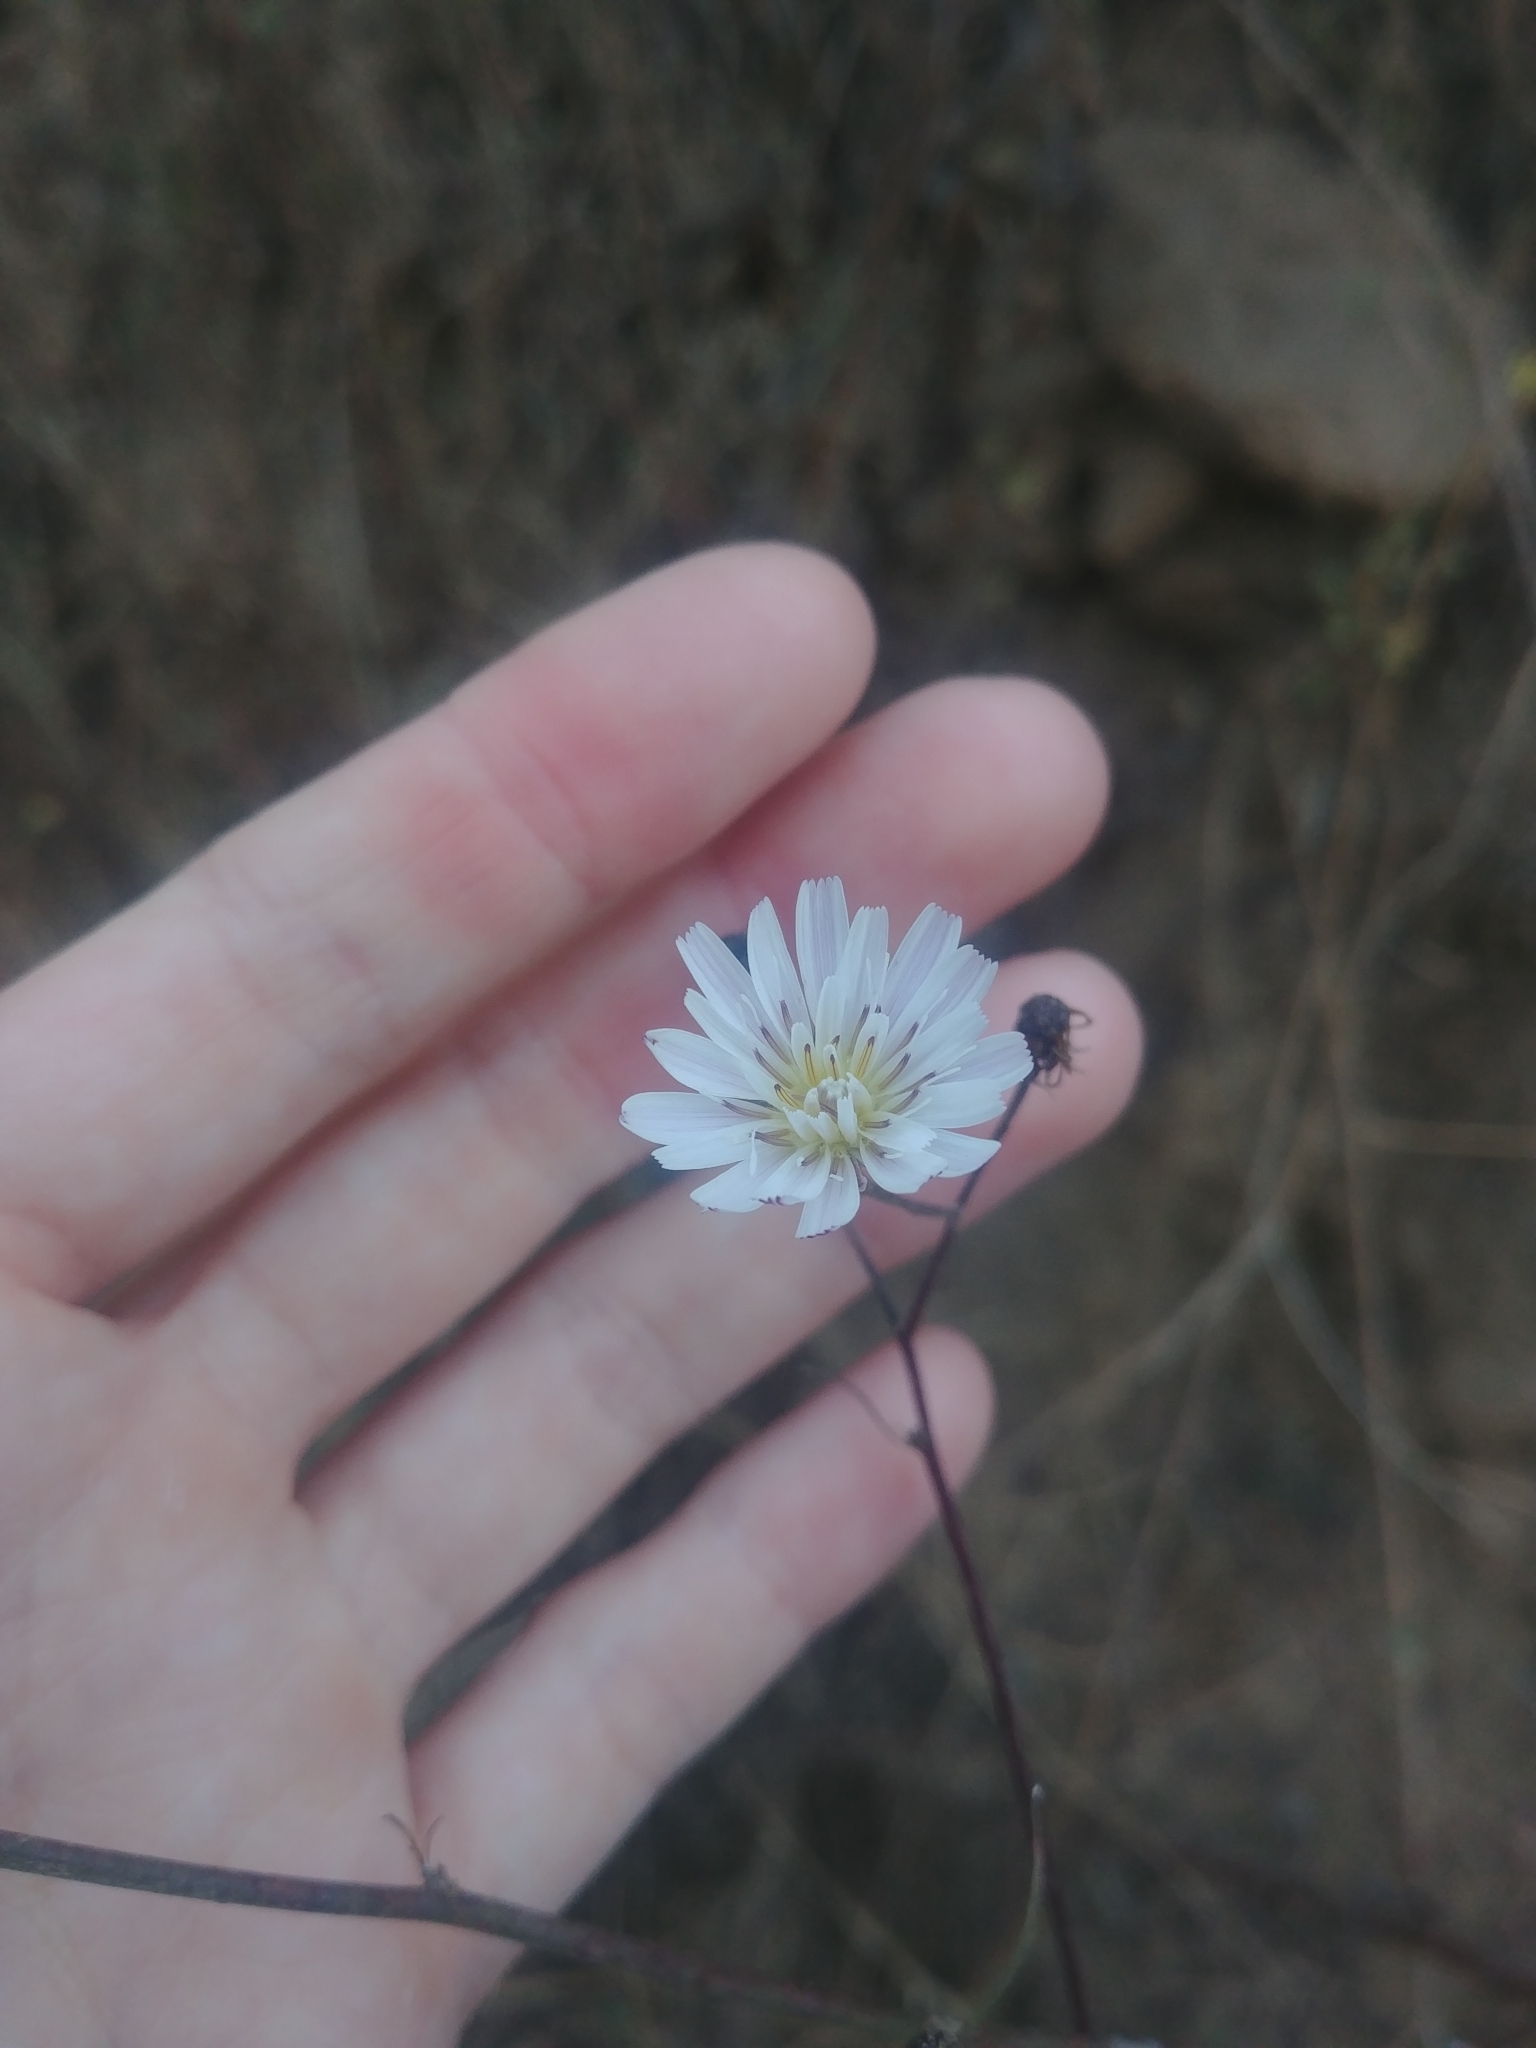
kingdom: Plantae
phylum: Tracheophyta
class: Magnoliopsida
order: Asterales
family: Asteraceae
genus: Malacothrix
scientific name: Malacothrix saxatilis
